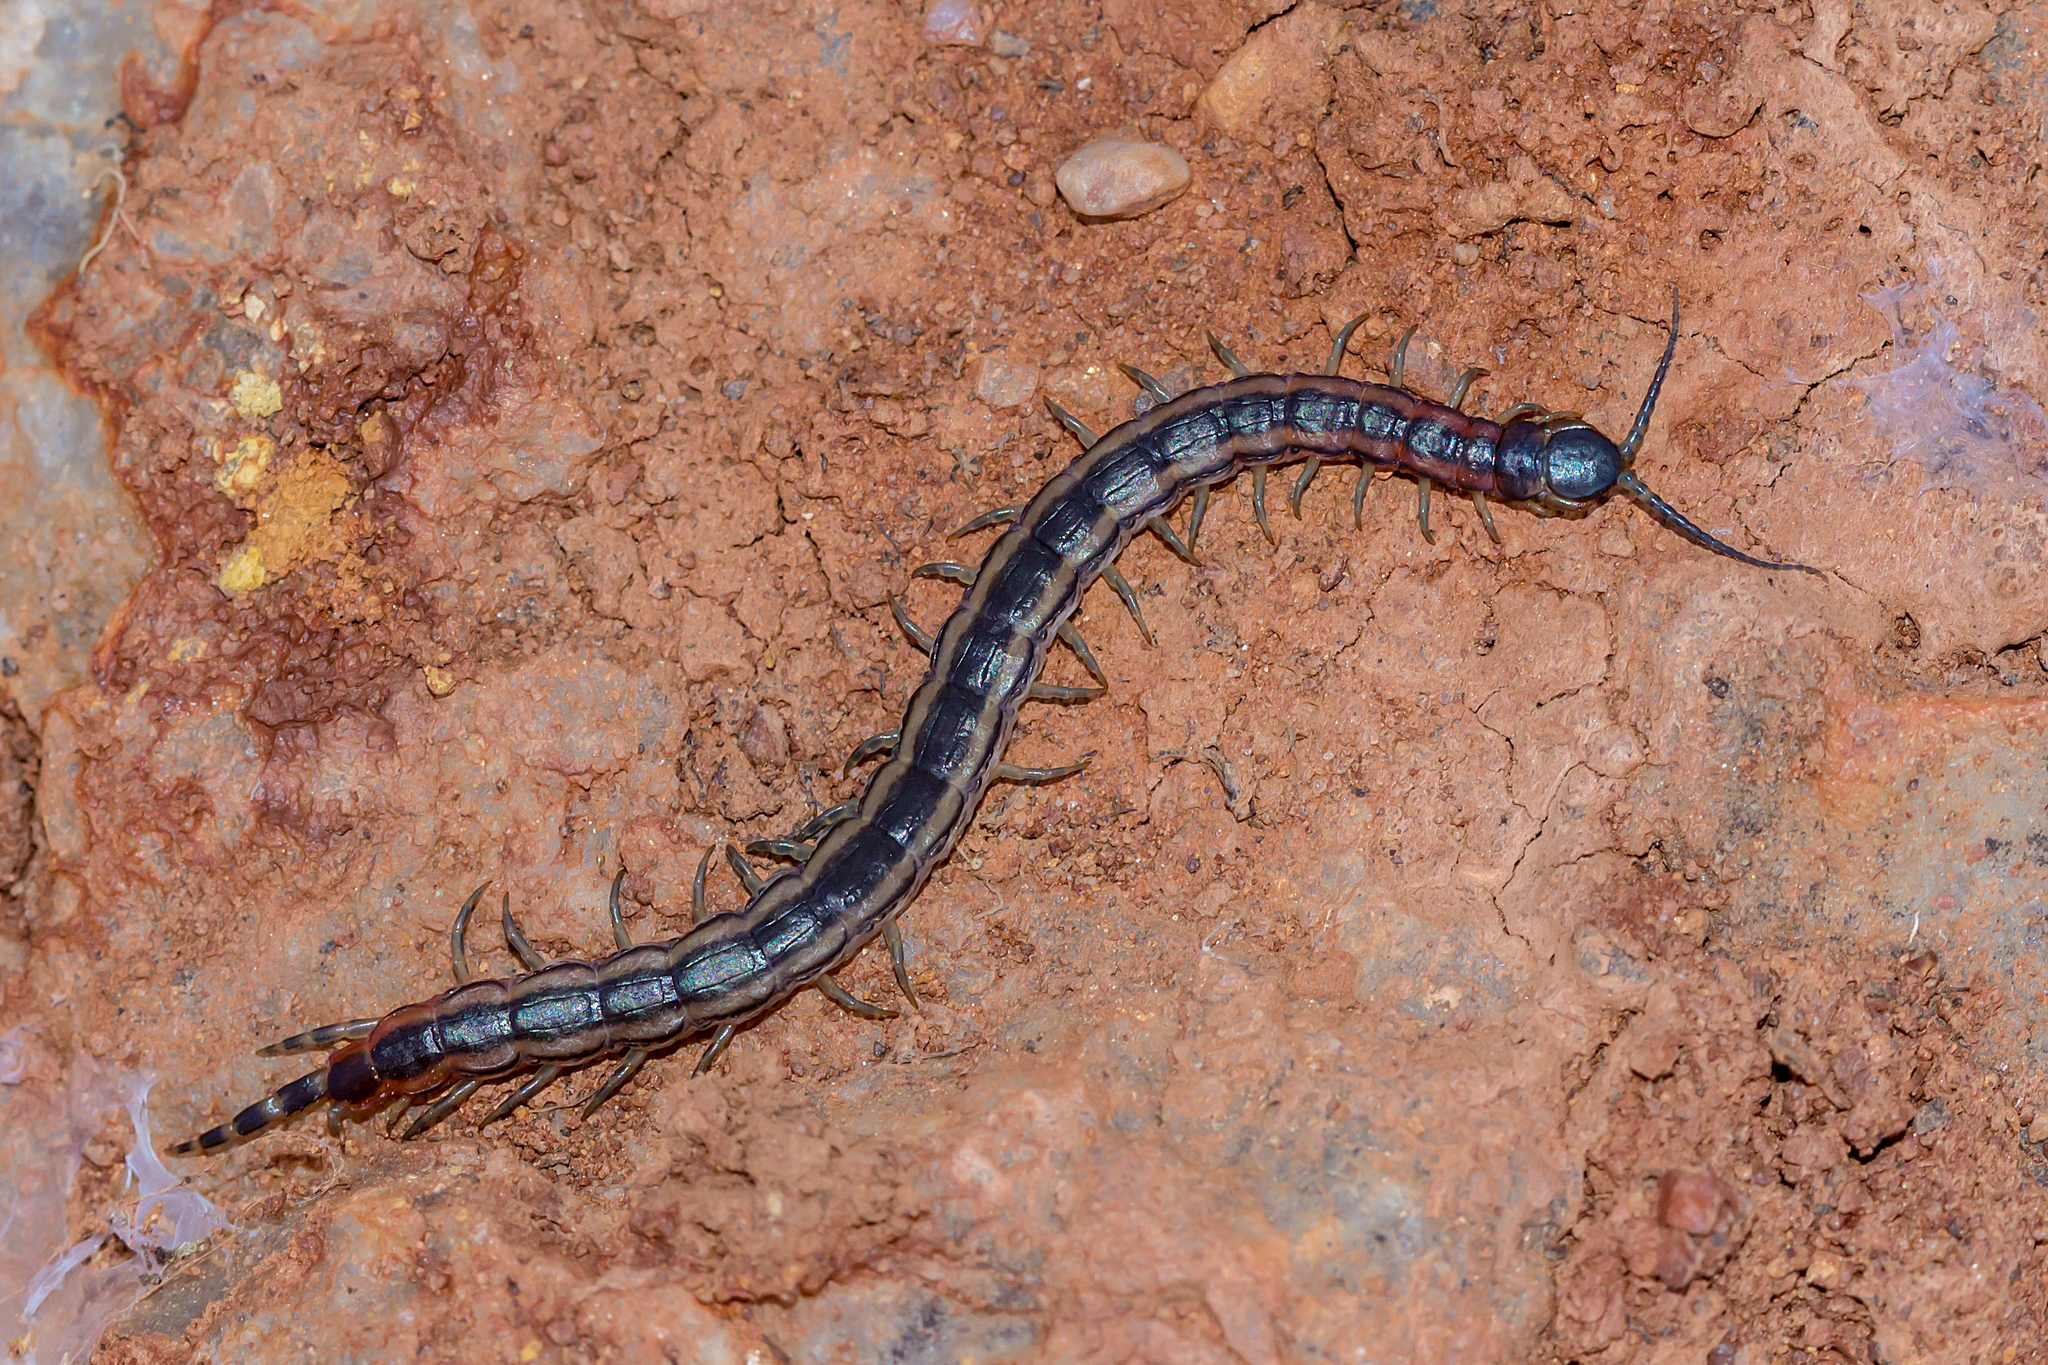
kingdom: Animalia
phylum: Arthropoda
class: Chilopoda
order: Scolopendromorpha
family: Scolopendridae
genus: Scolopendra
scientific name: Scolopendra laeta
